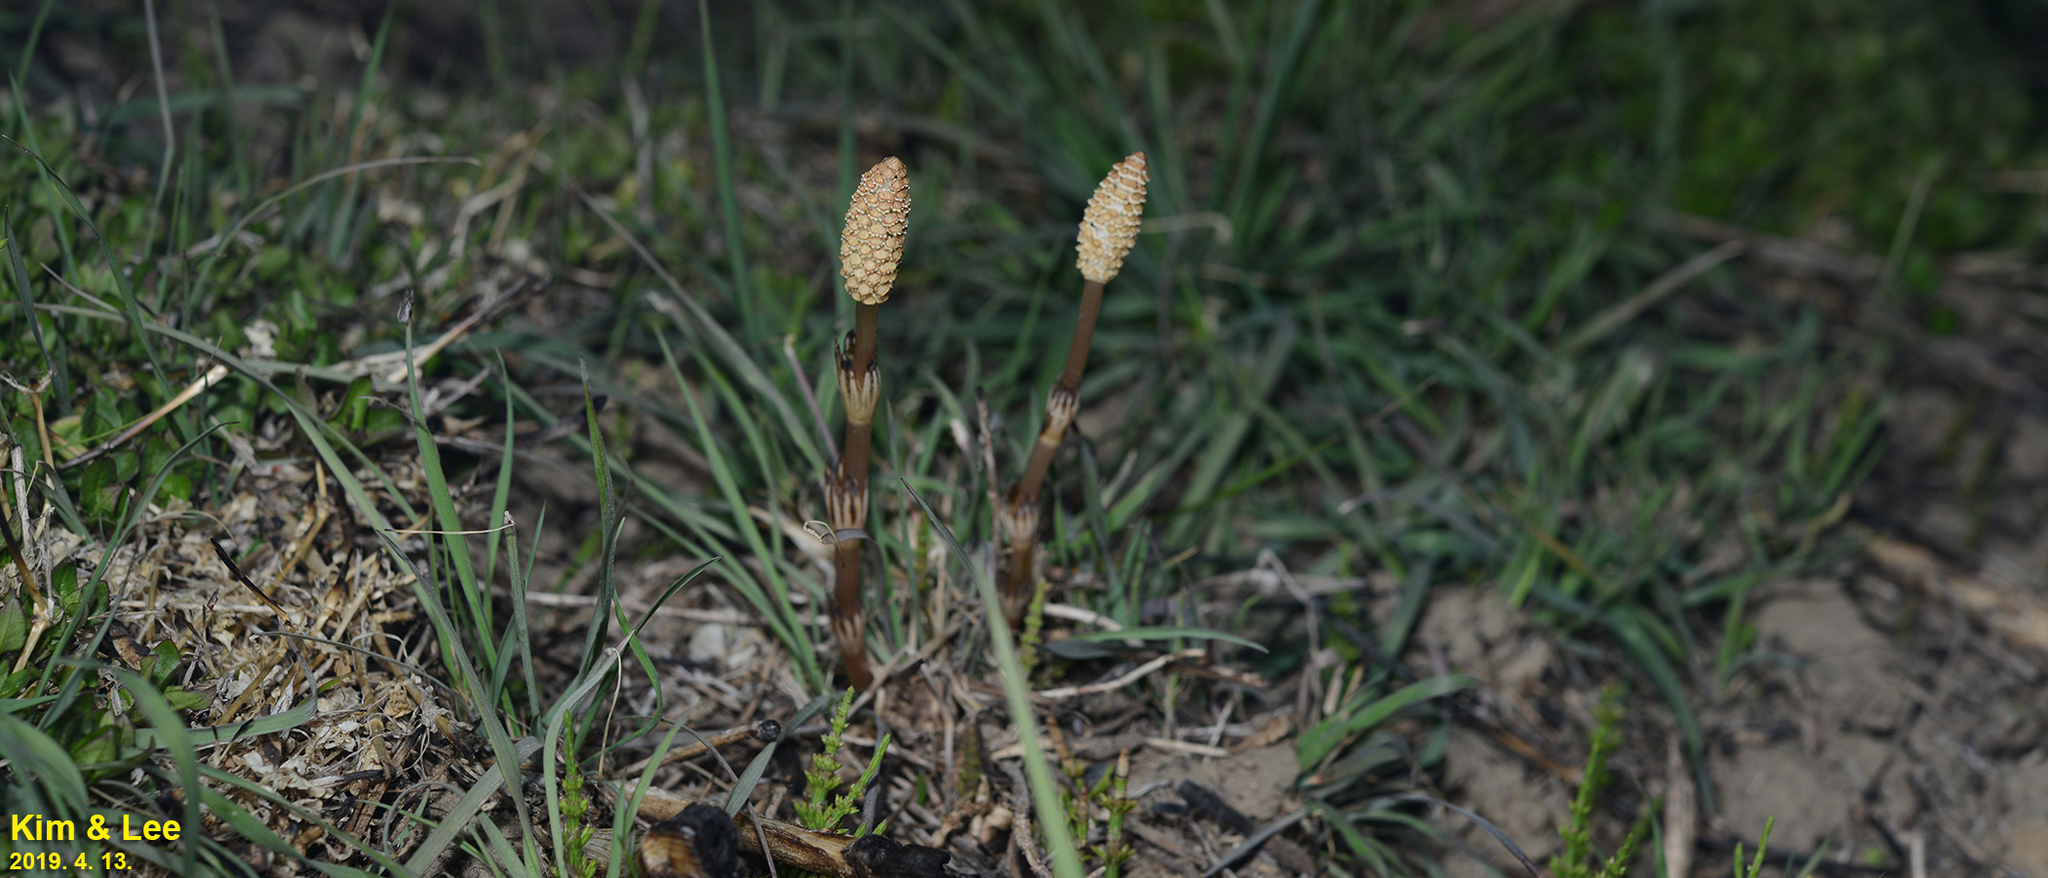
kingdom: Plantae
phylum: Tracheophyta
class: Polypodiopsida
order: Equisetales
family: Equisetaceae
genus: Equisetum
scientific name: Equisetum arvense
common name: Field horsetail
